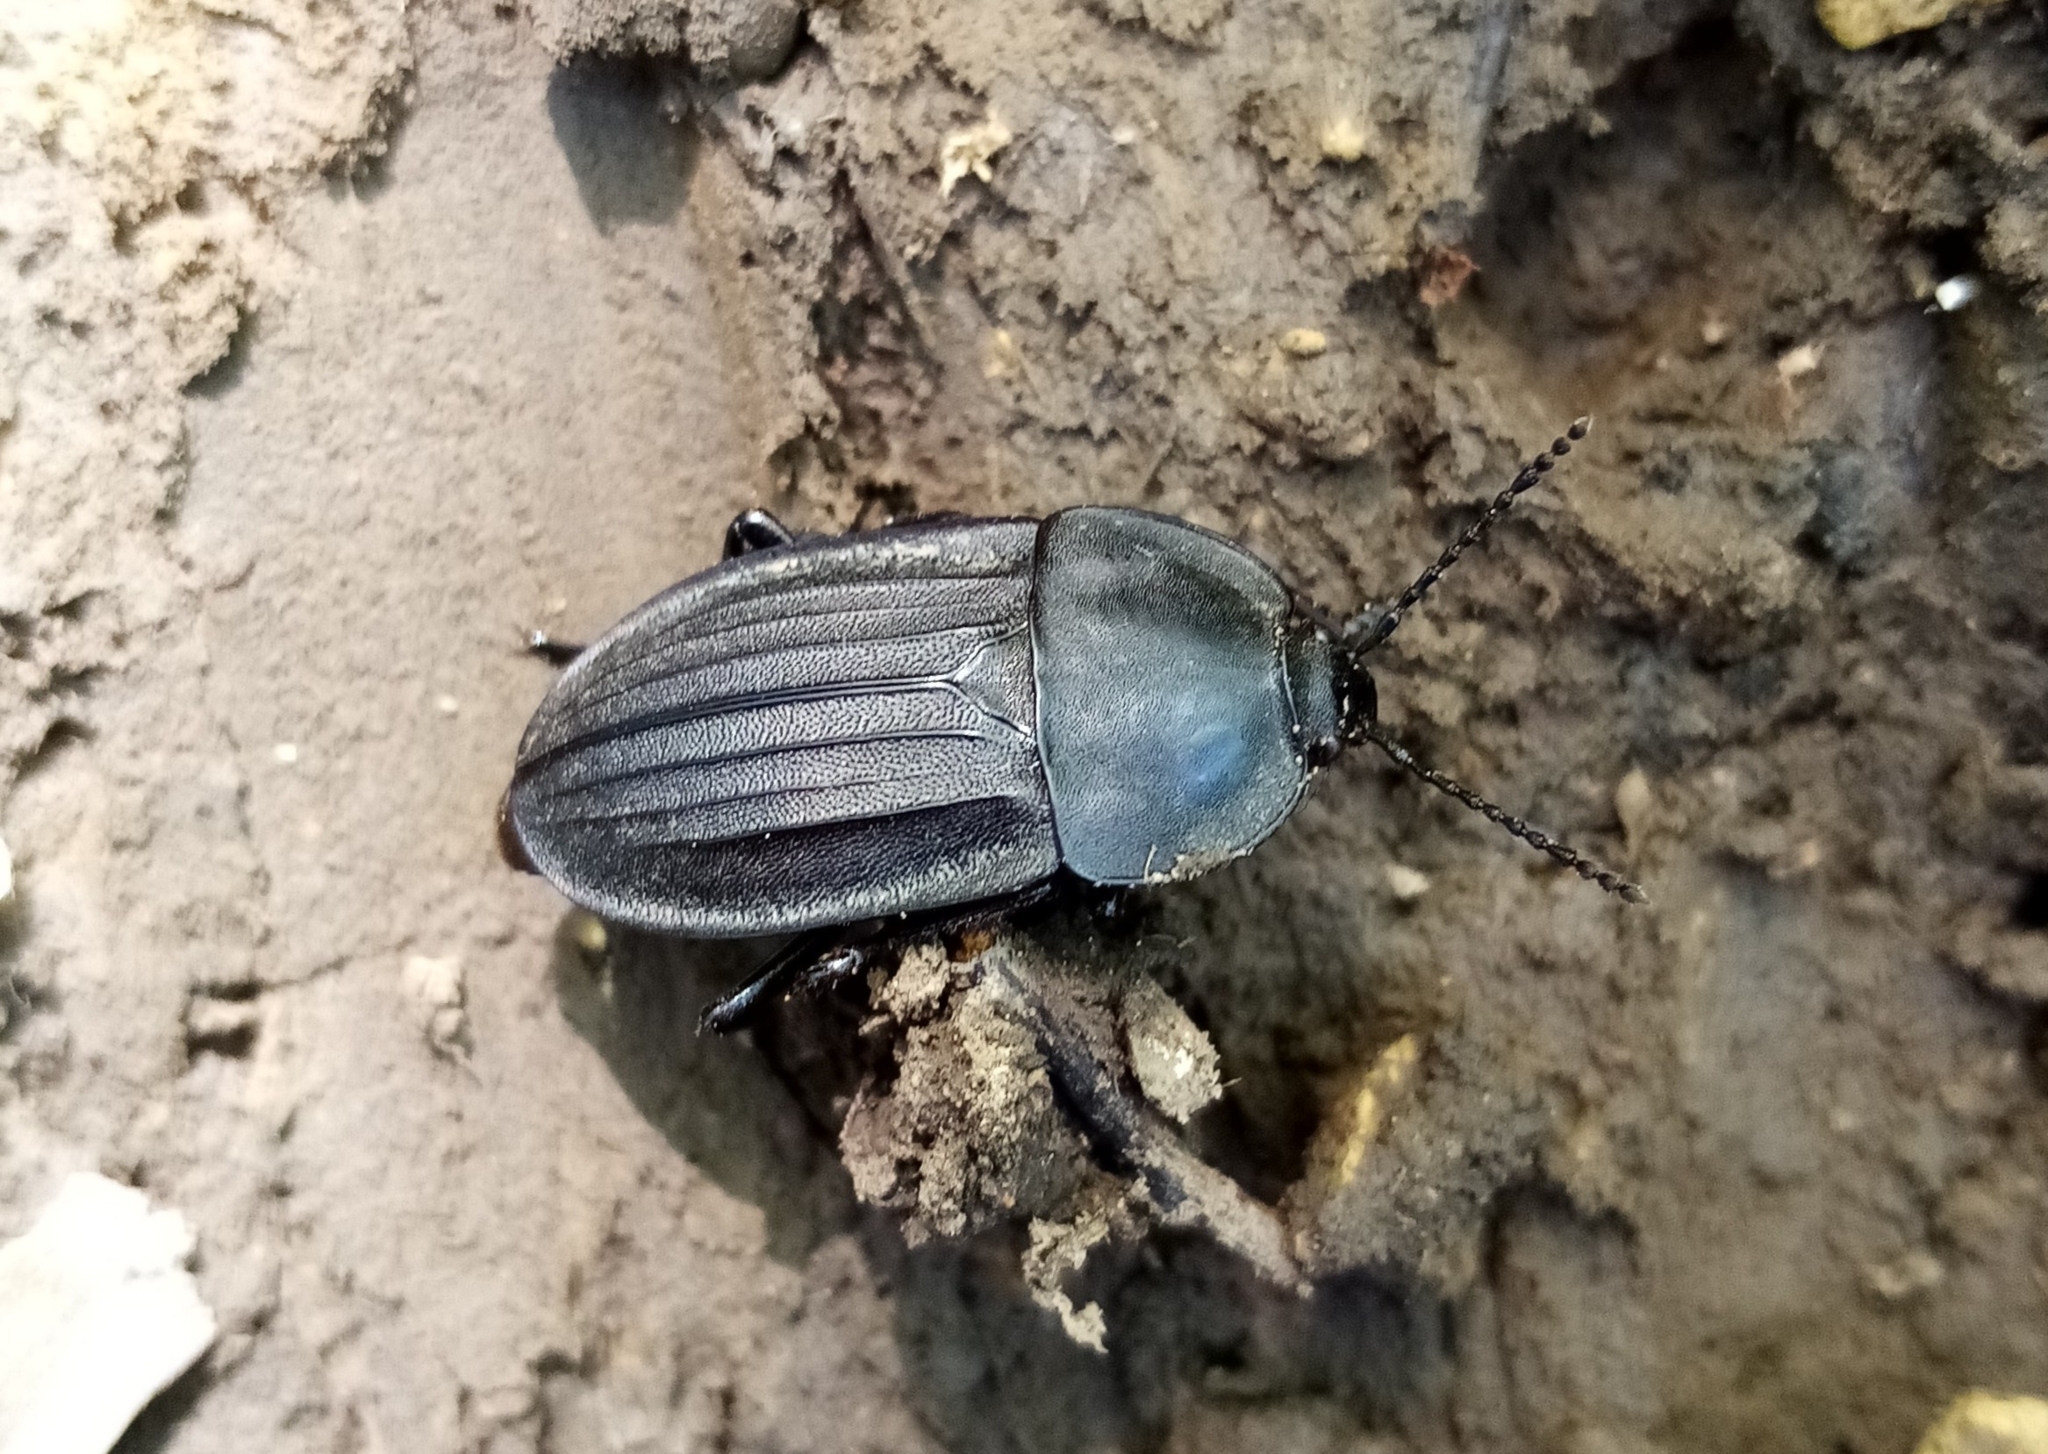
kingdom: Animalia
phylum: Arthropoda
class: Insecta
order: Coleoptera
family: Staphylinidae
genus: Silpha
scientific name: Silpha carinata
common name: Silphid beetle
